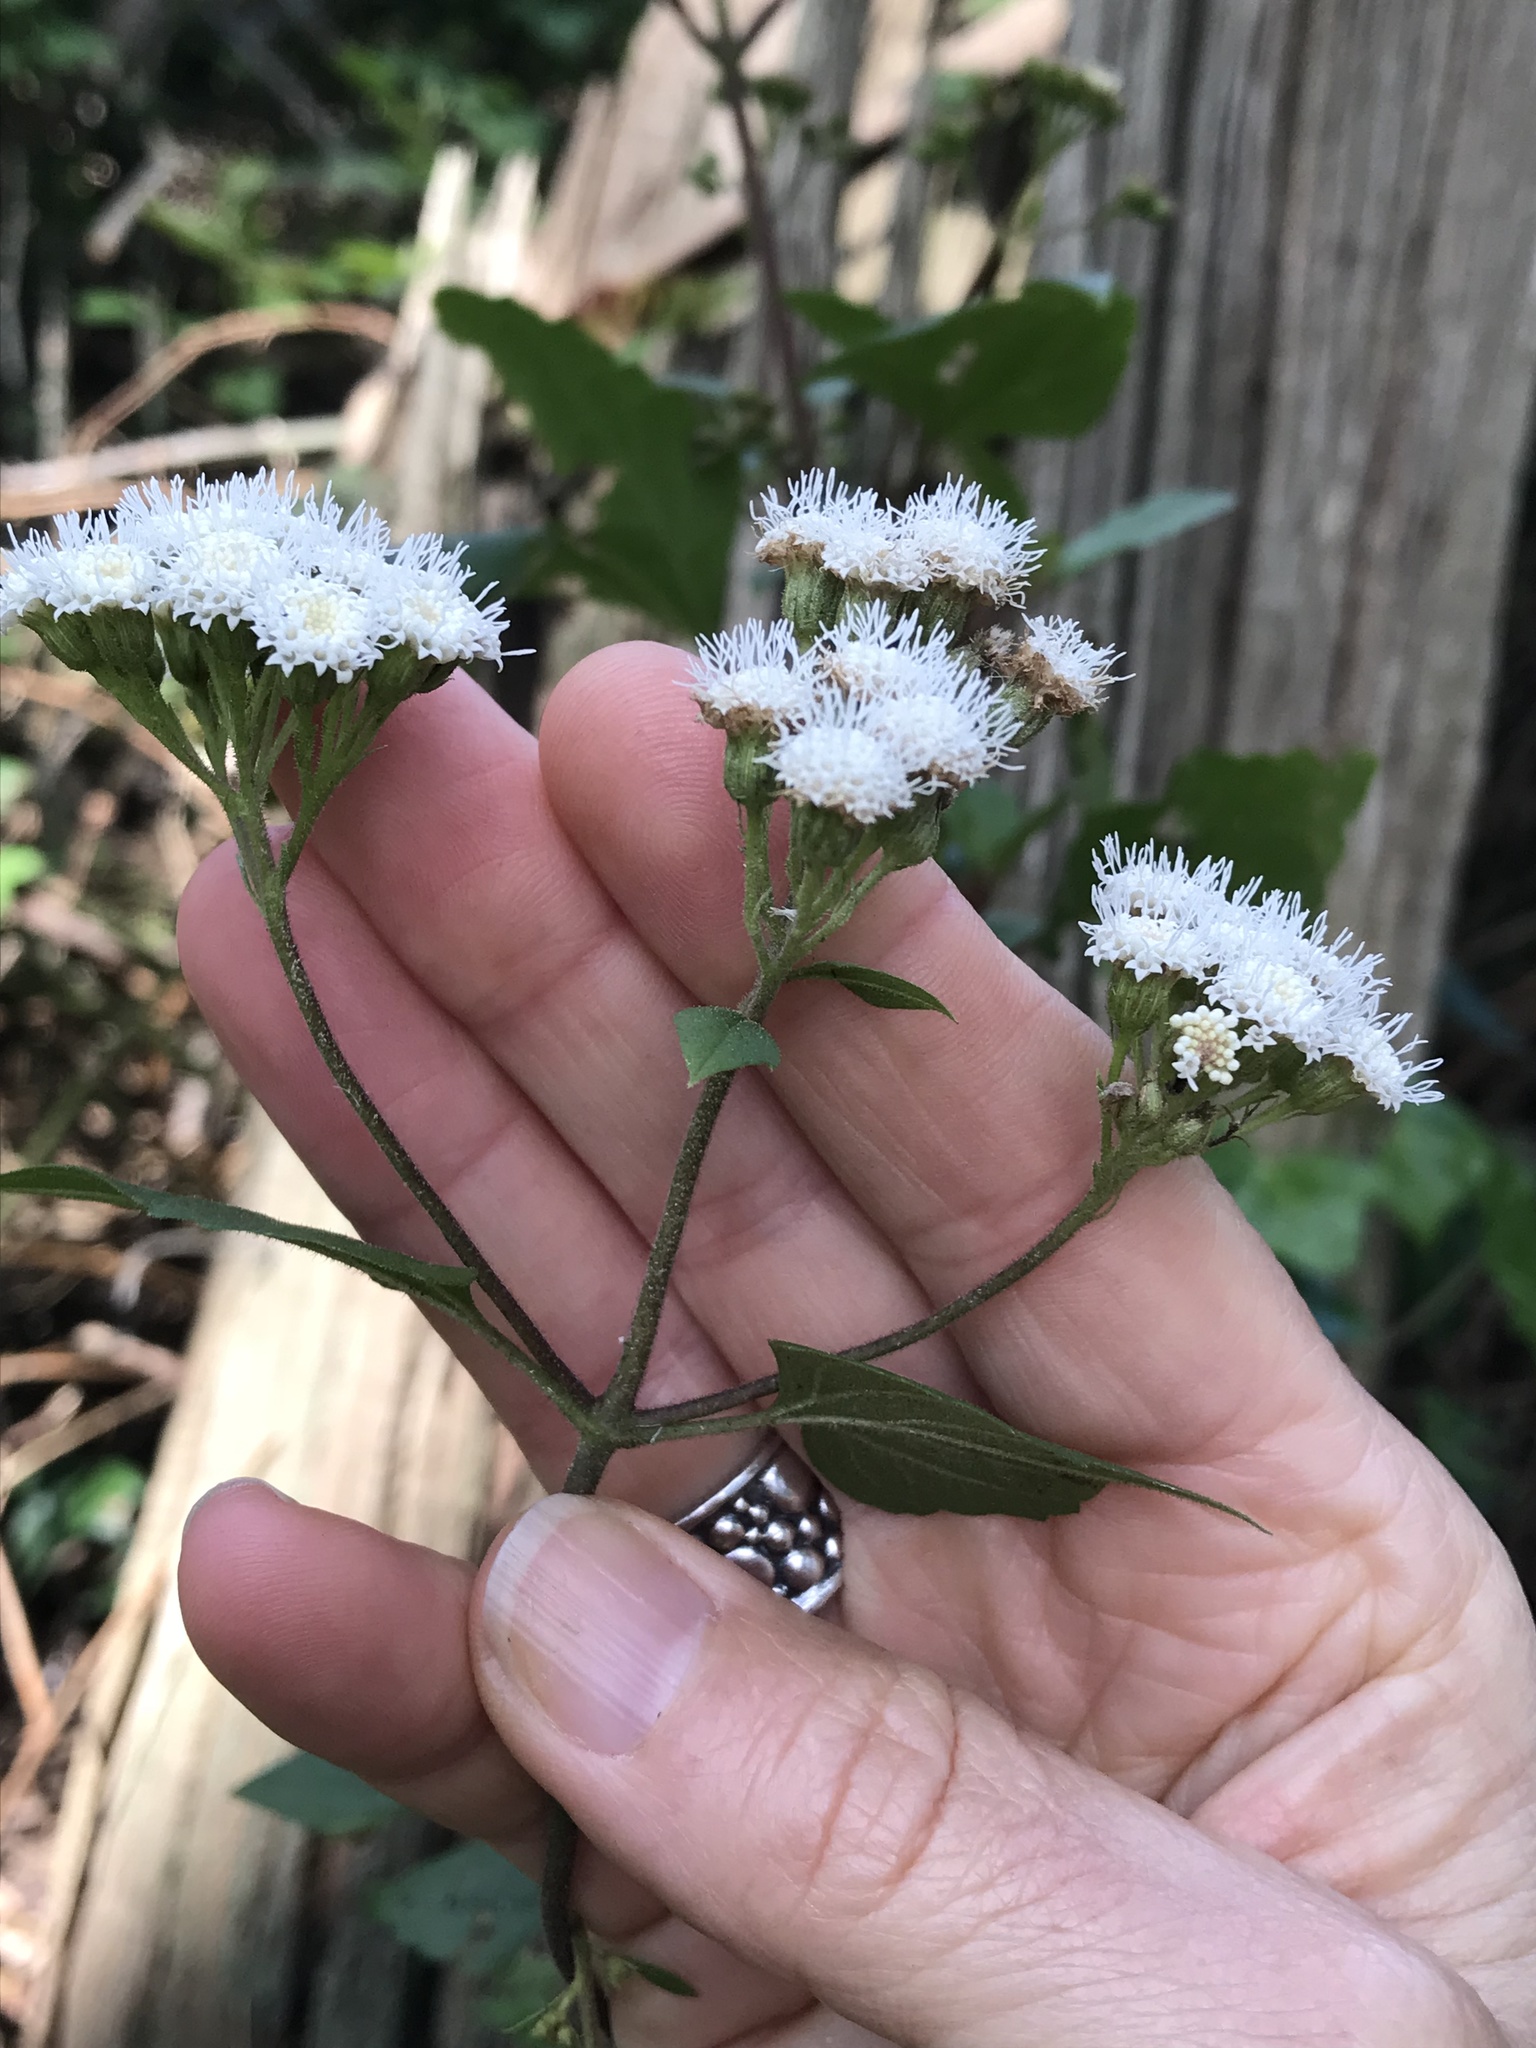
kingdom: Plantae
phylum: Tracheophyta
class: Magnoliopsida
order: Asterales
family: Asteraceae
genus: Ageratina
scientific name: Ageratina adenophora
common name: Sticky snakeroot
